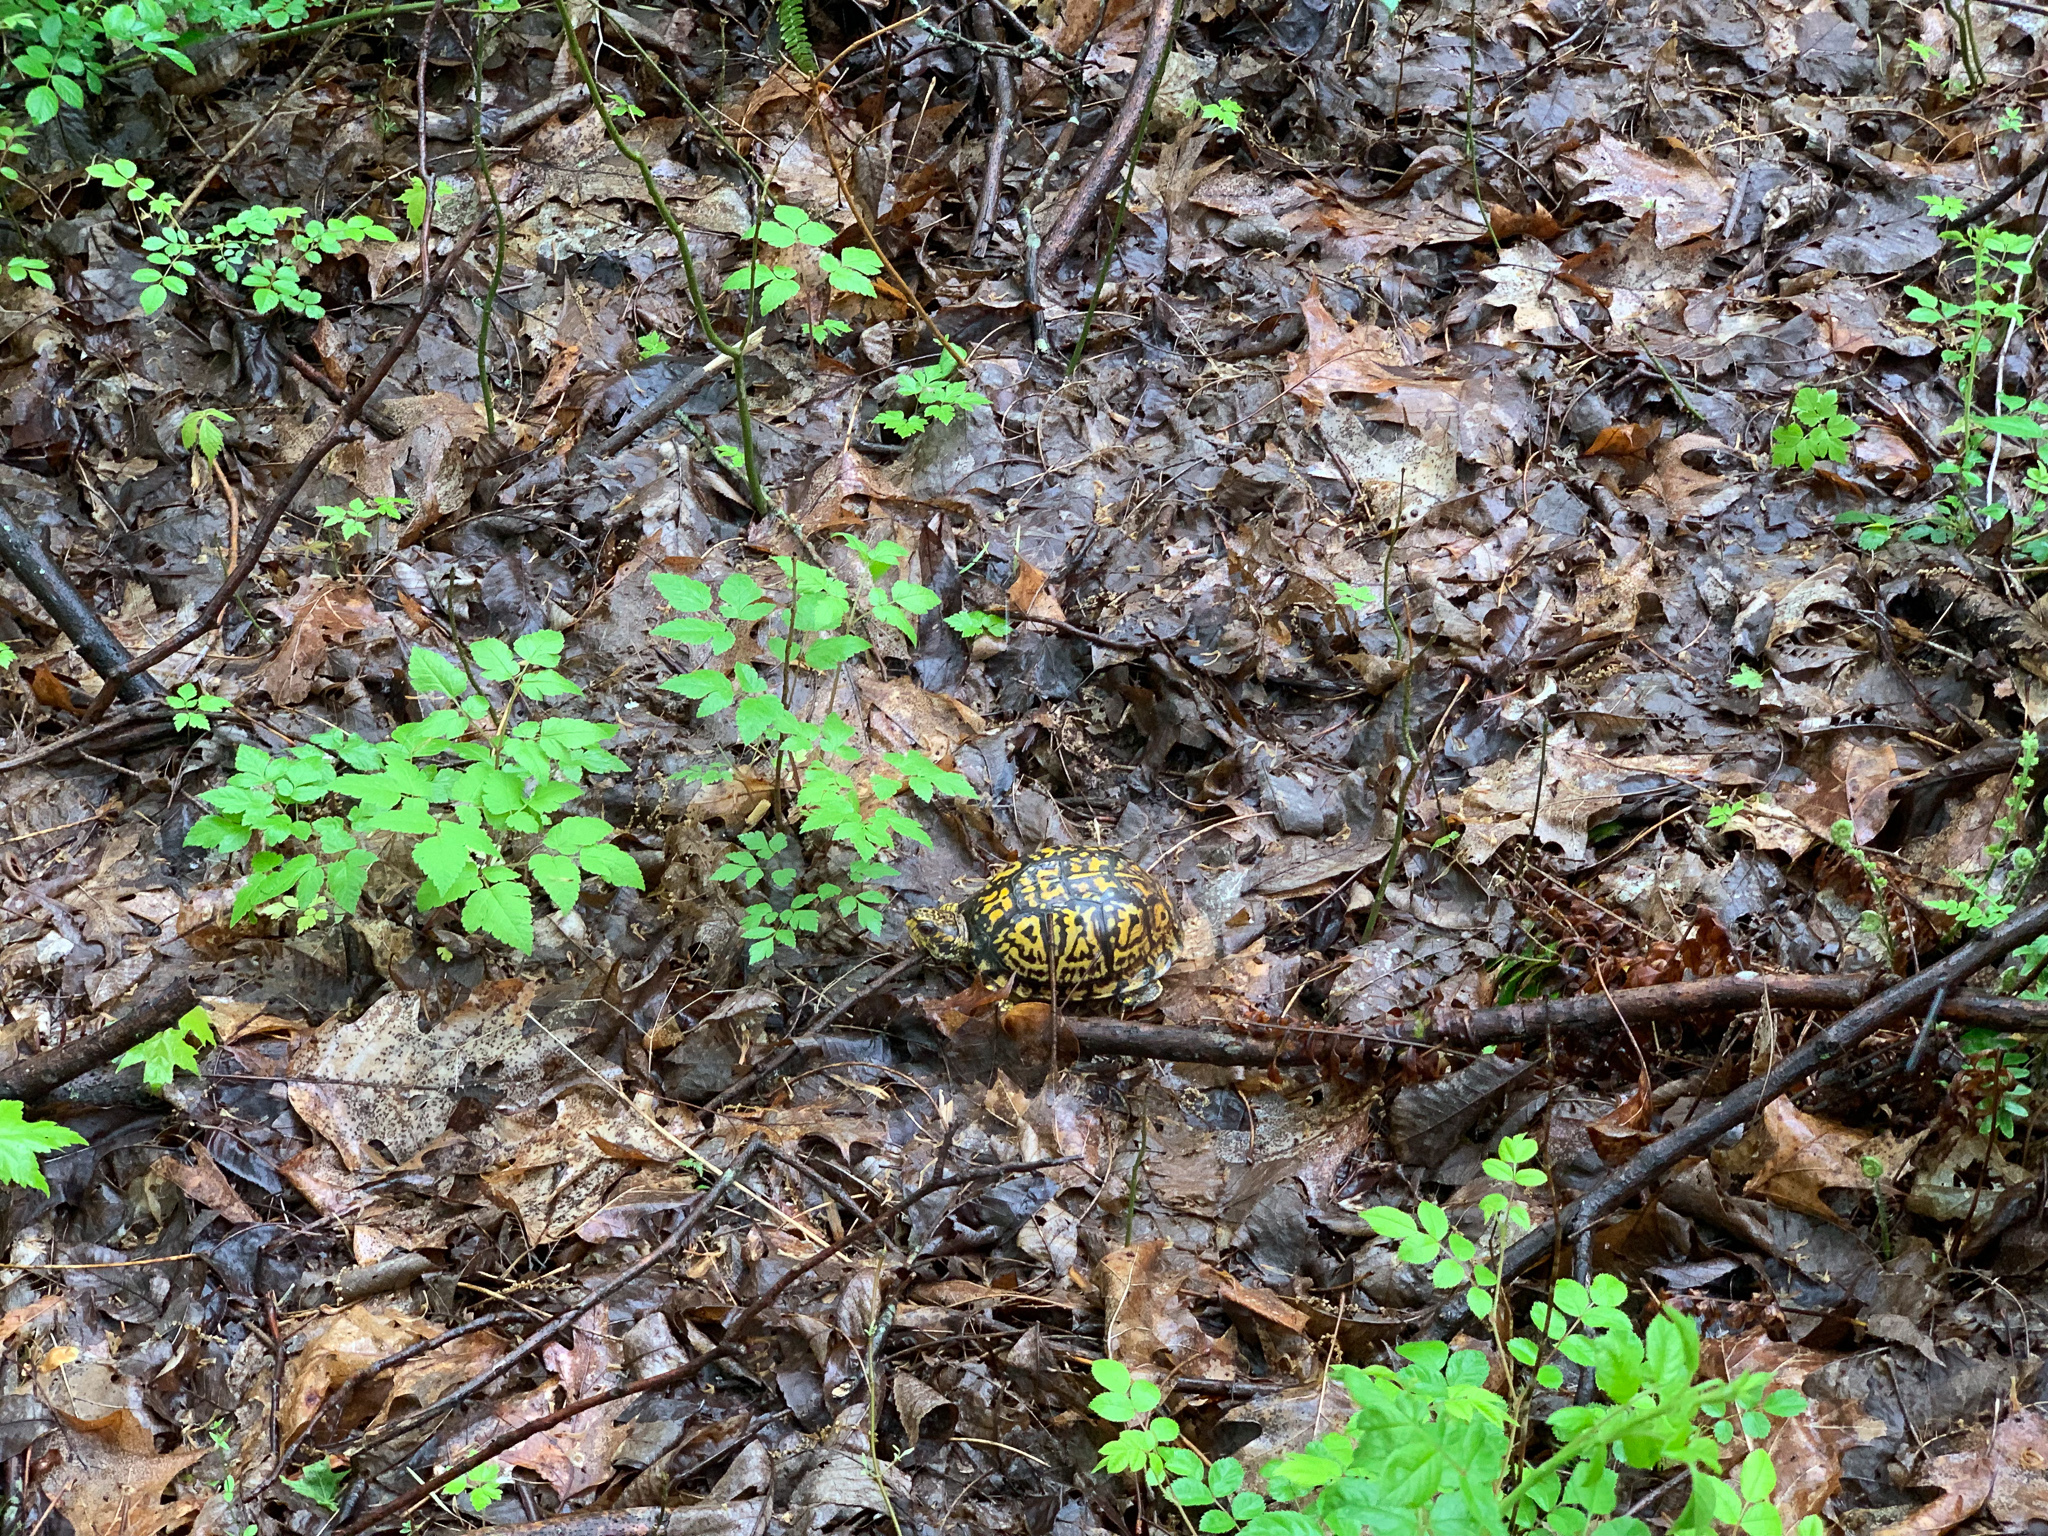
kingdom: Animalia
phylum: Chordata
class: Testudines
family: Emydidae
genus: Terrapene
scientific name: Terrapene carolina
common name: Common box turtle
